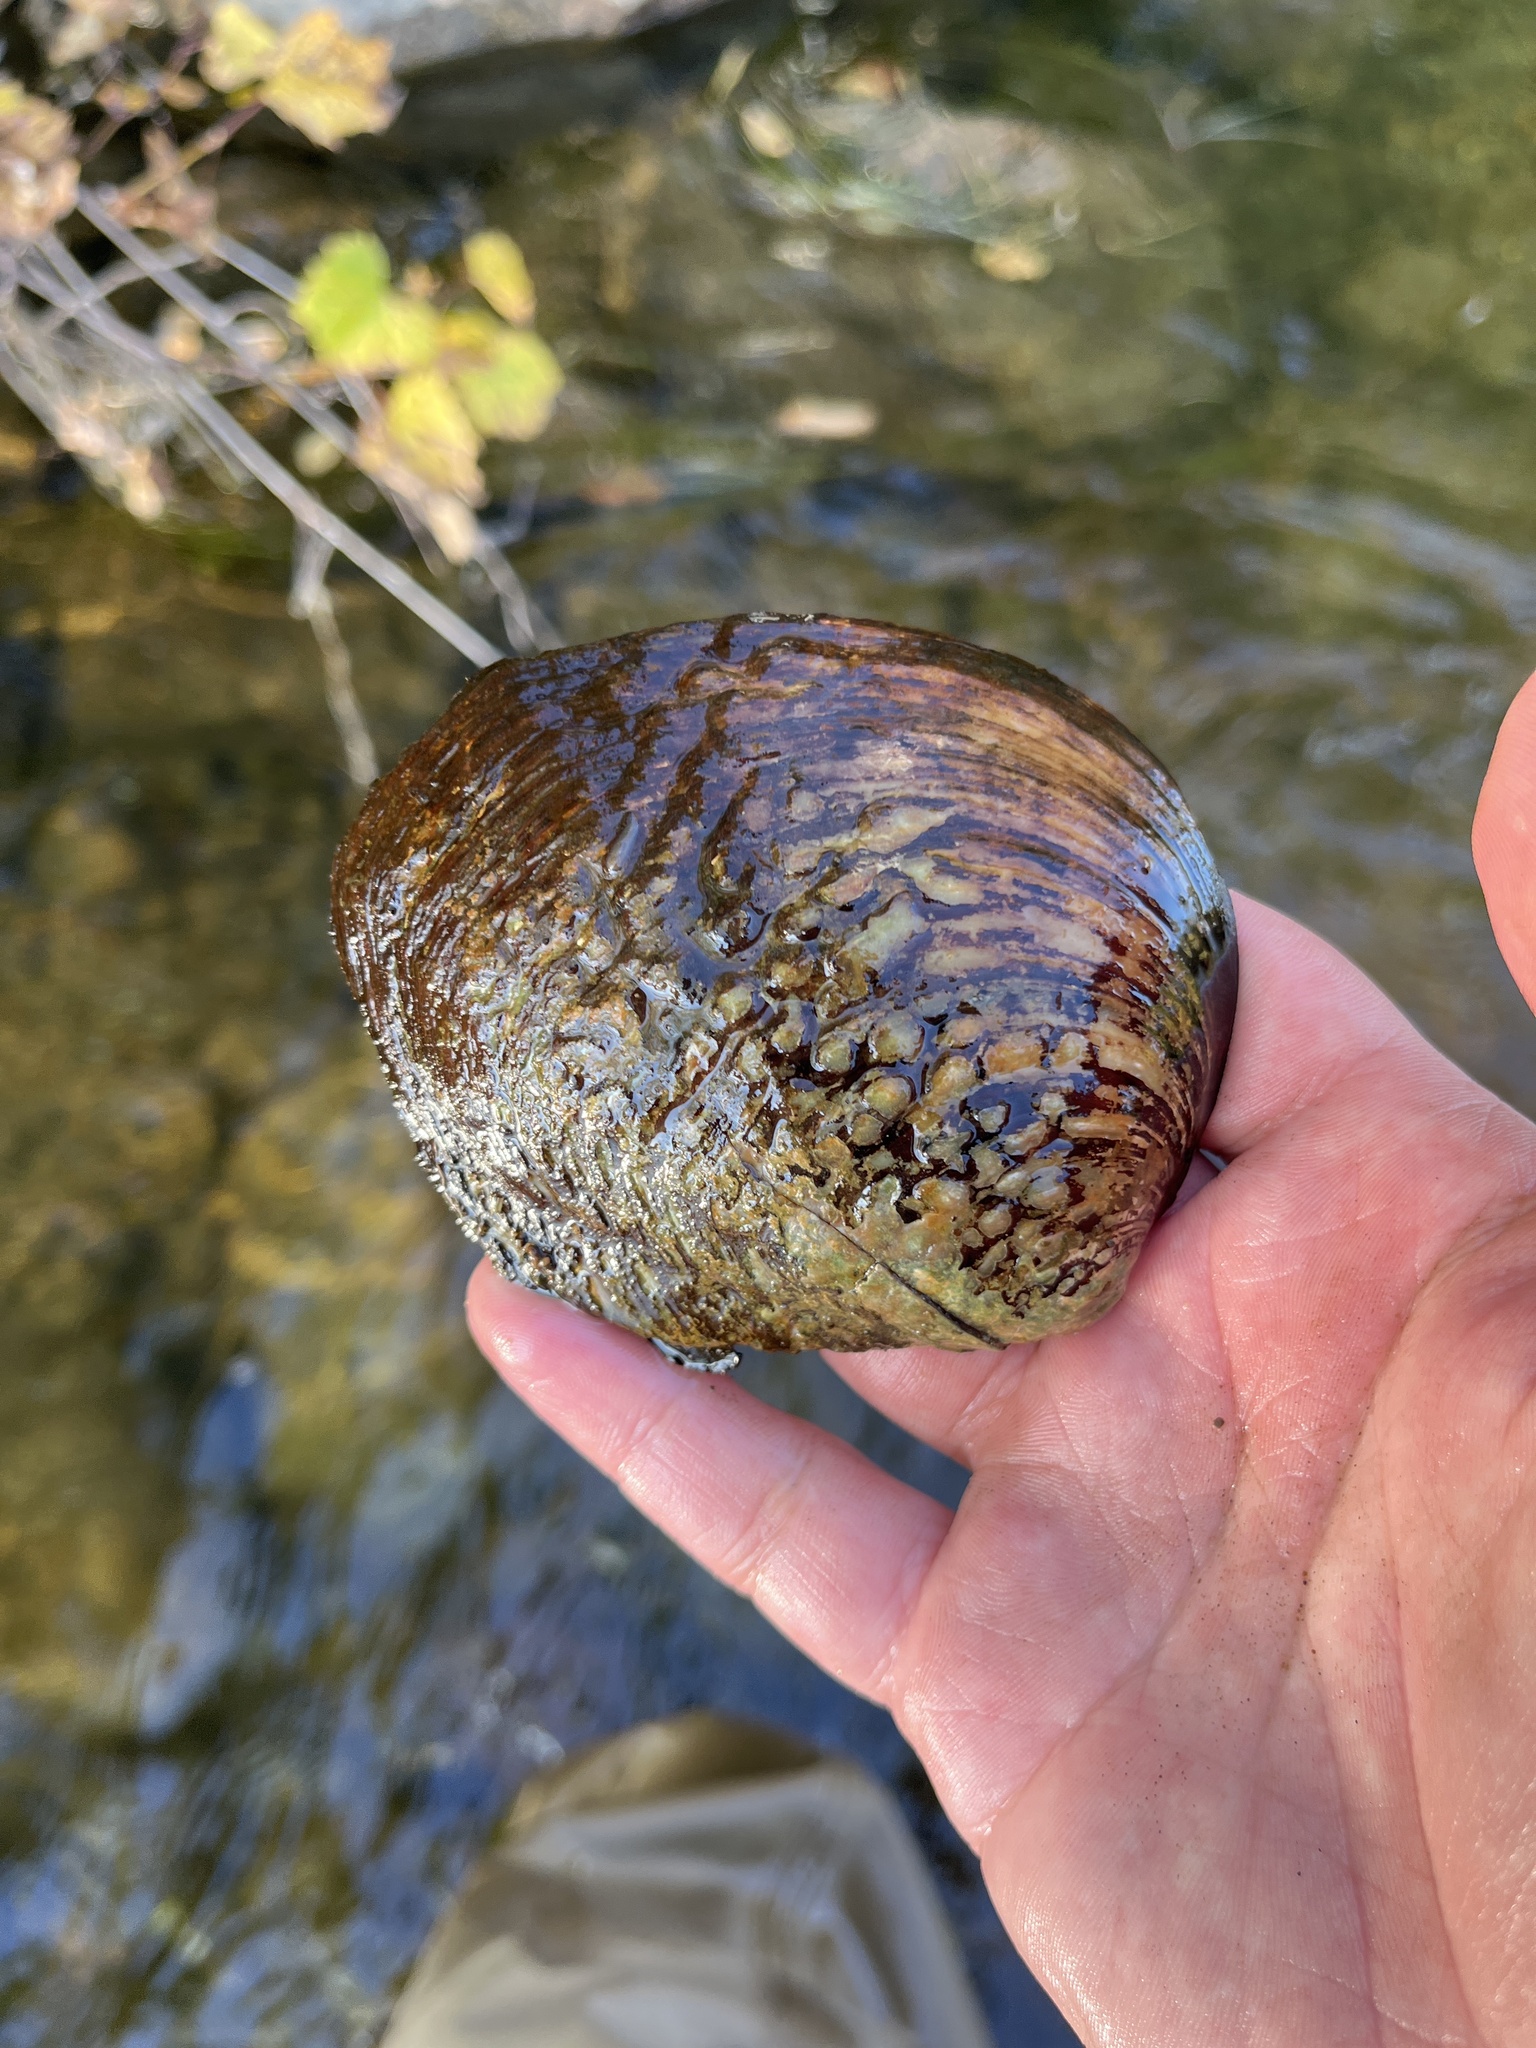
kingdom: Animalia
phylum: Mollusca
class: Bivalvia
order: Unionida
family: Unionidae
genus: Cyclonaias
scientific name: Cyclonaias tuberculata
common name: Purple wartyback
